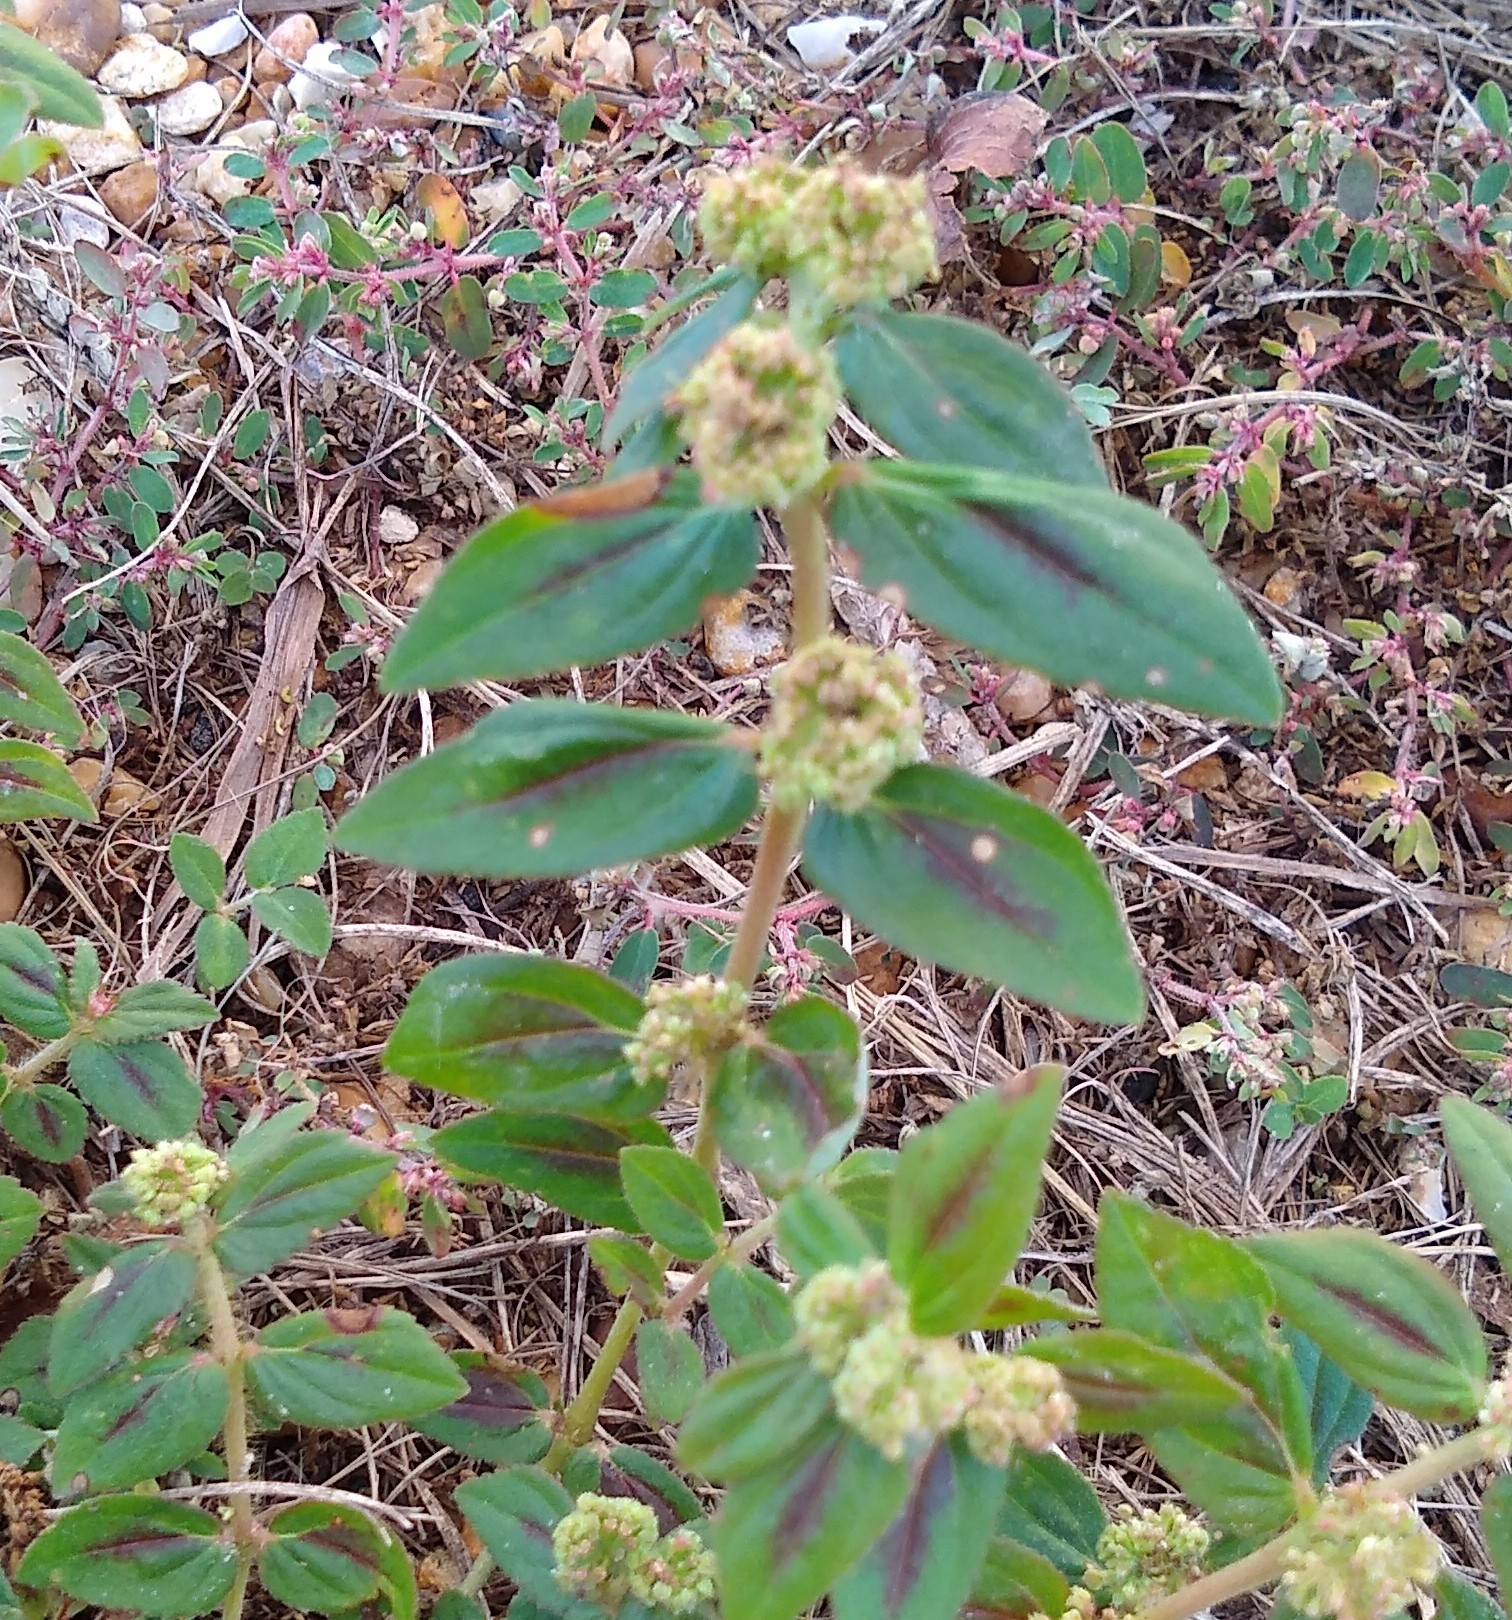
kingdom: Plantae
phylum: Tracheophyta
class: Magnoliopsida
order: Malpighiales
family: Euphorbiaceae
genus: Euphorbia
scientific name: Euphorbia hirta
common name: Pillpod sandmat
